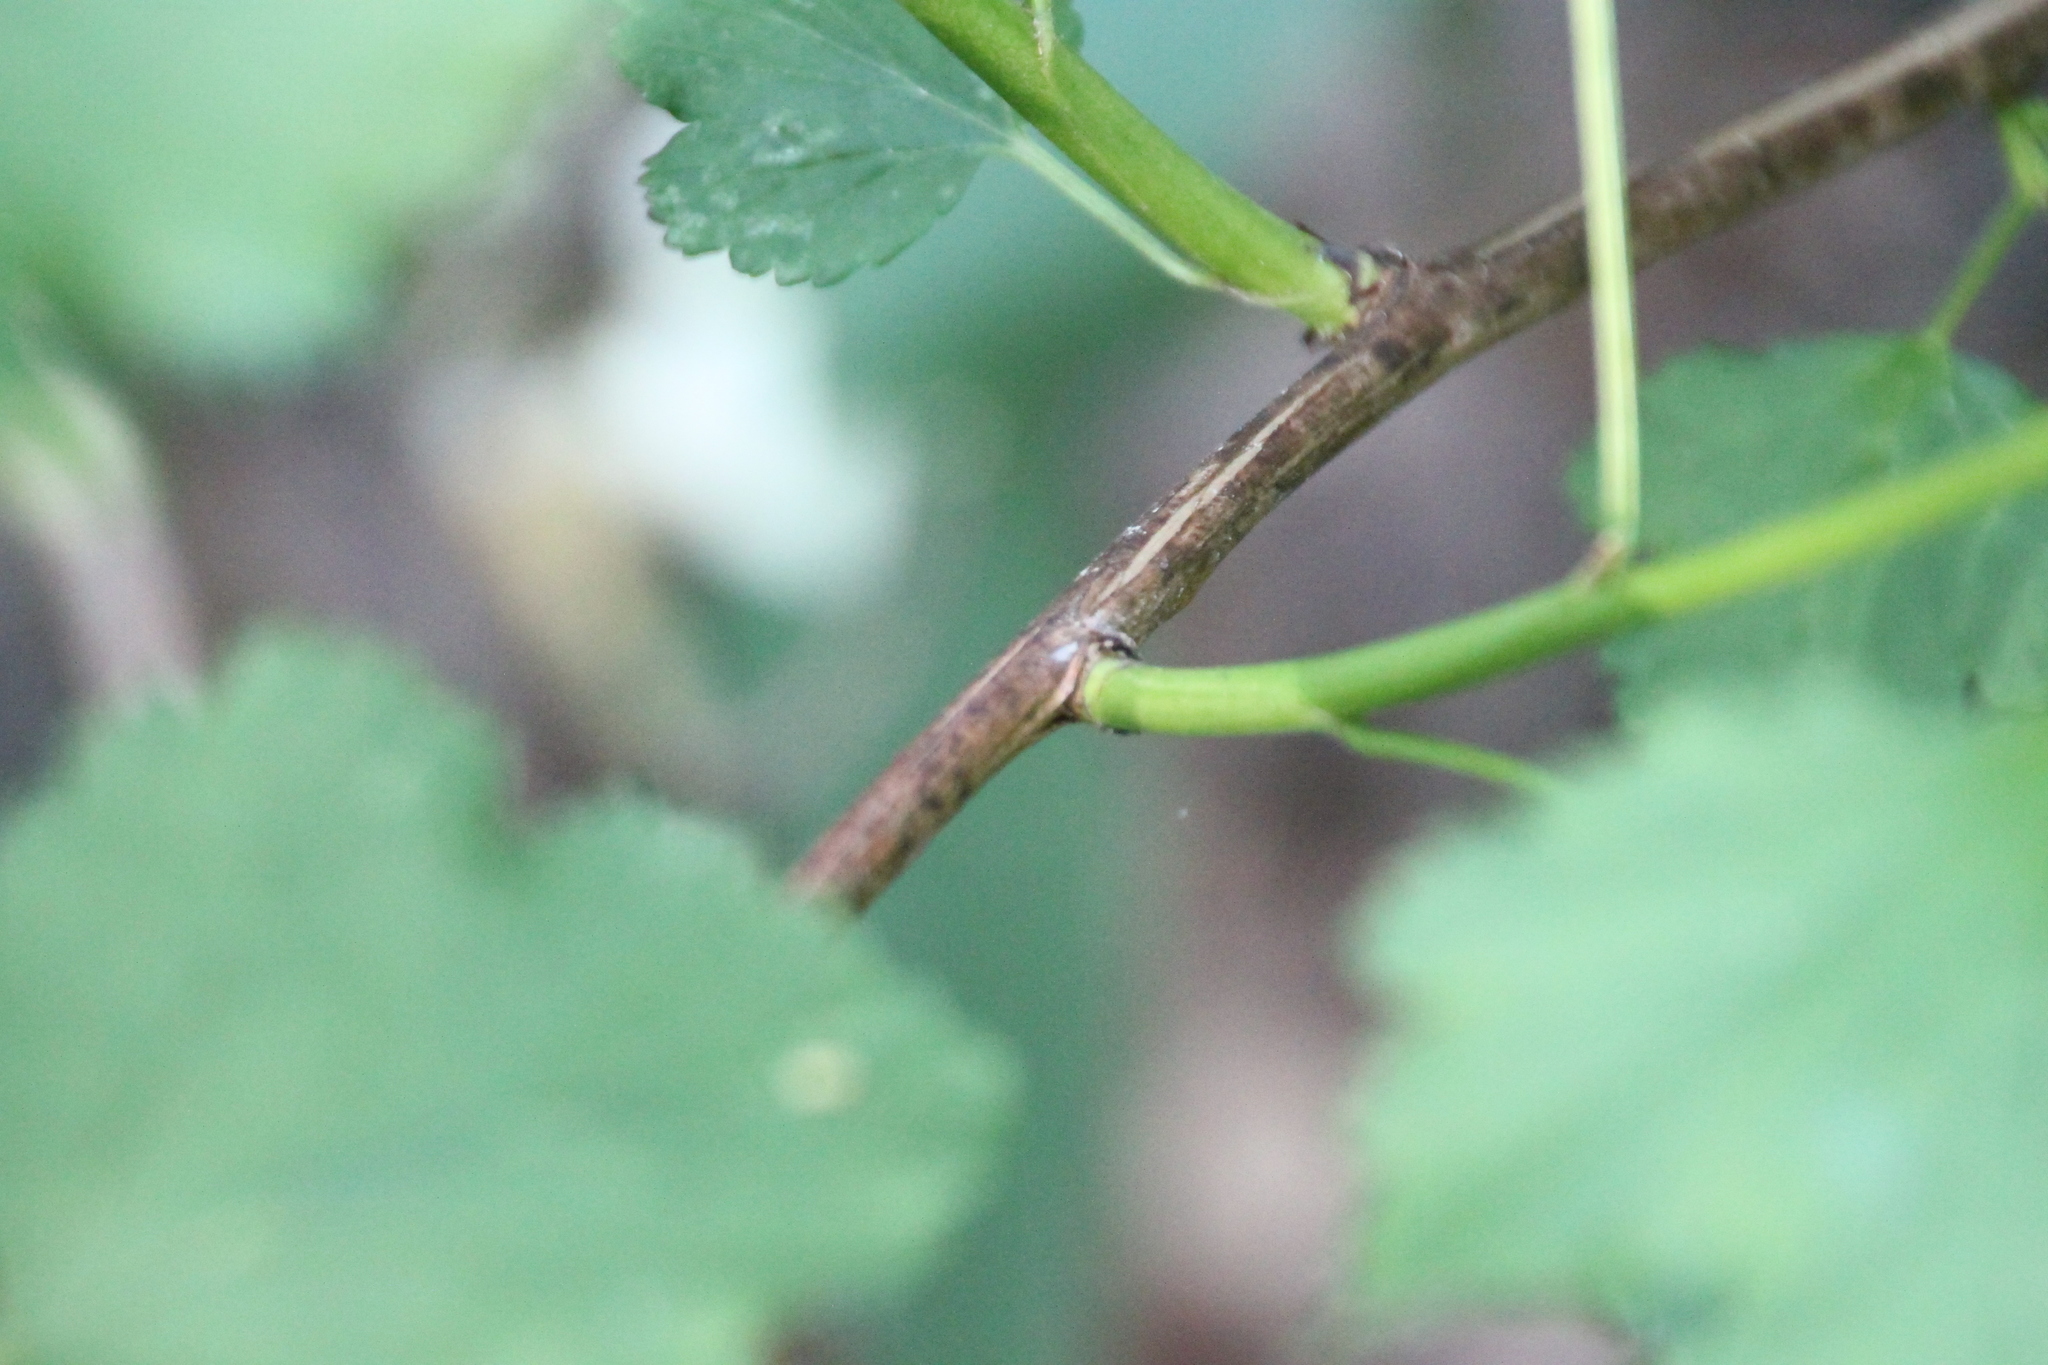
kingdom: Plantae
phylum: Tracheophyta
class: Magnoliopsida
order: Rosales
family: Rosaceae
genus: Physocarpus
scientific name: Physocarpus opulifolius
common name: Ninebark
